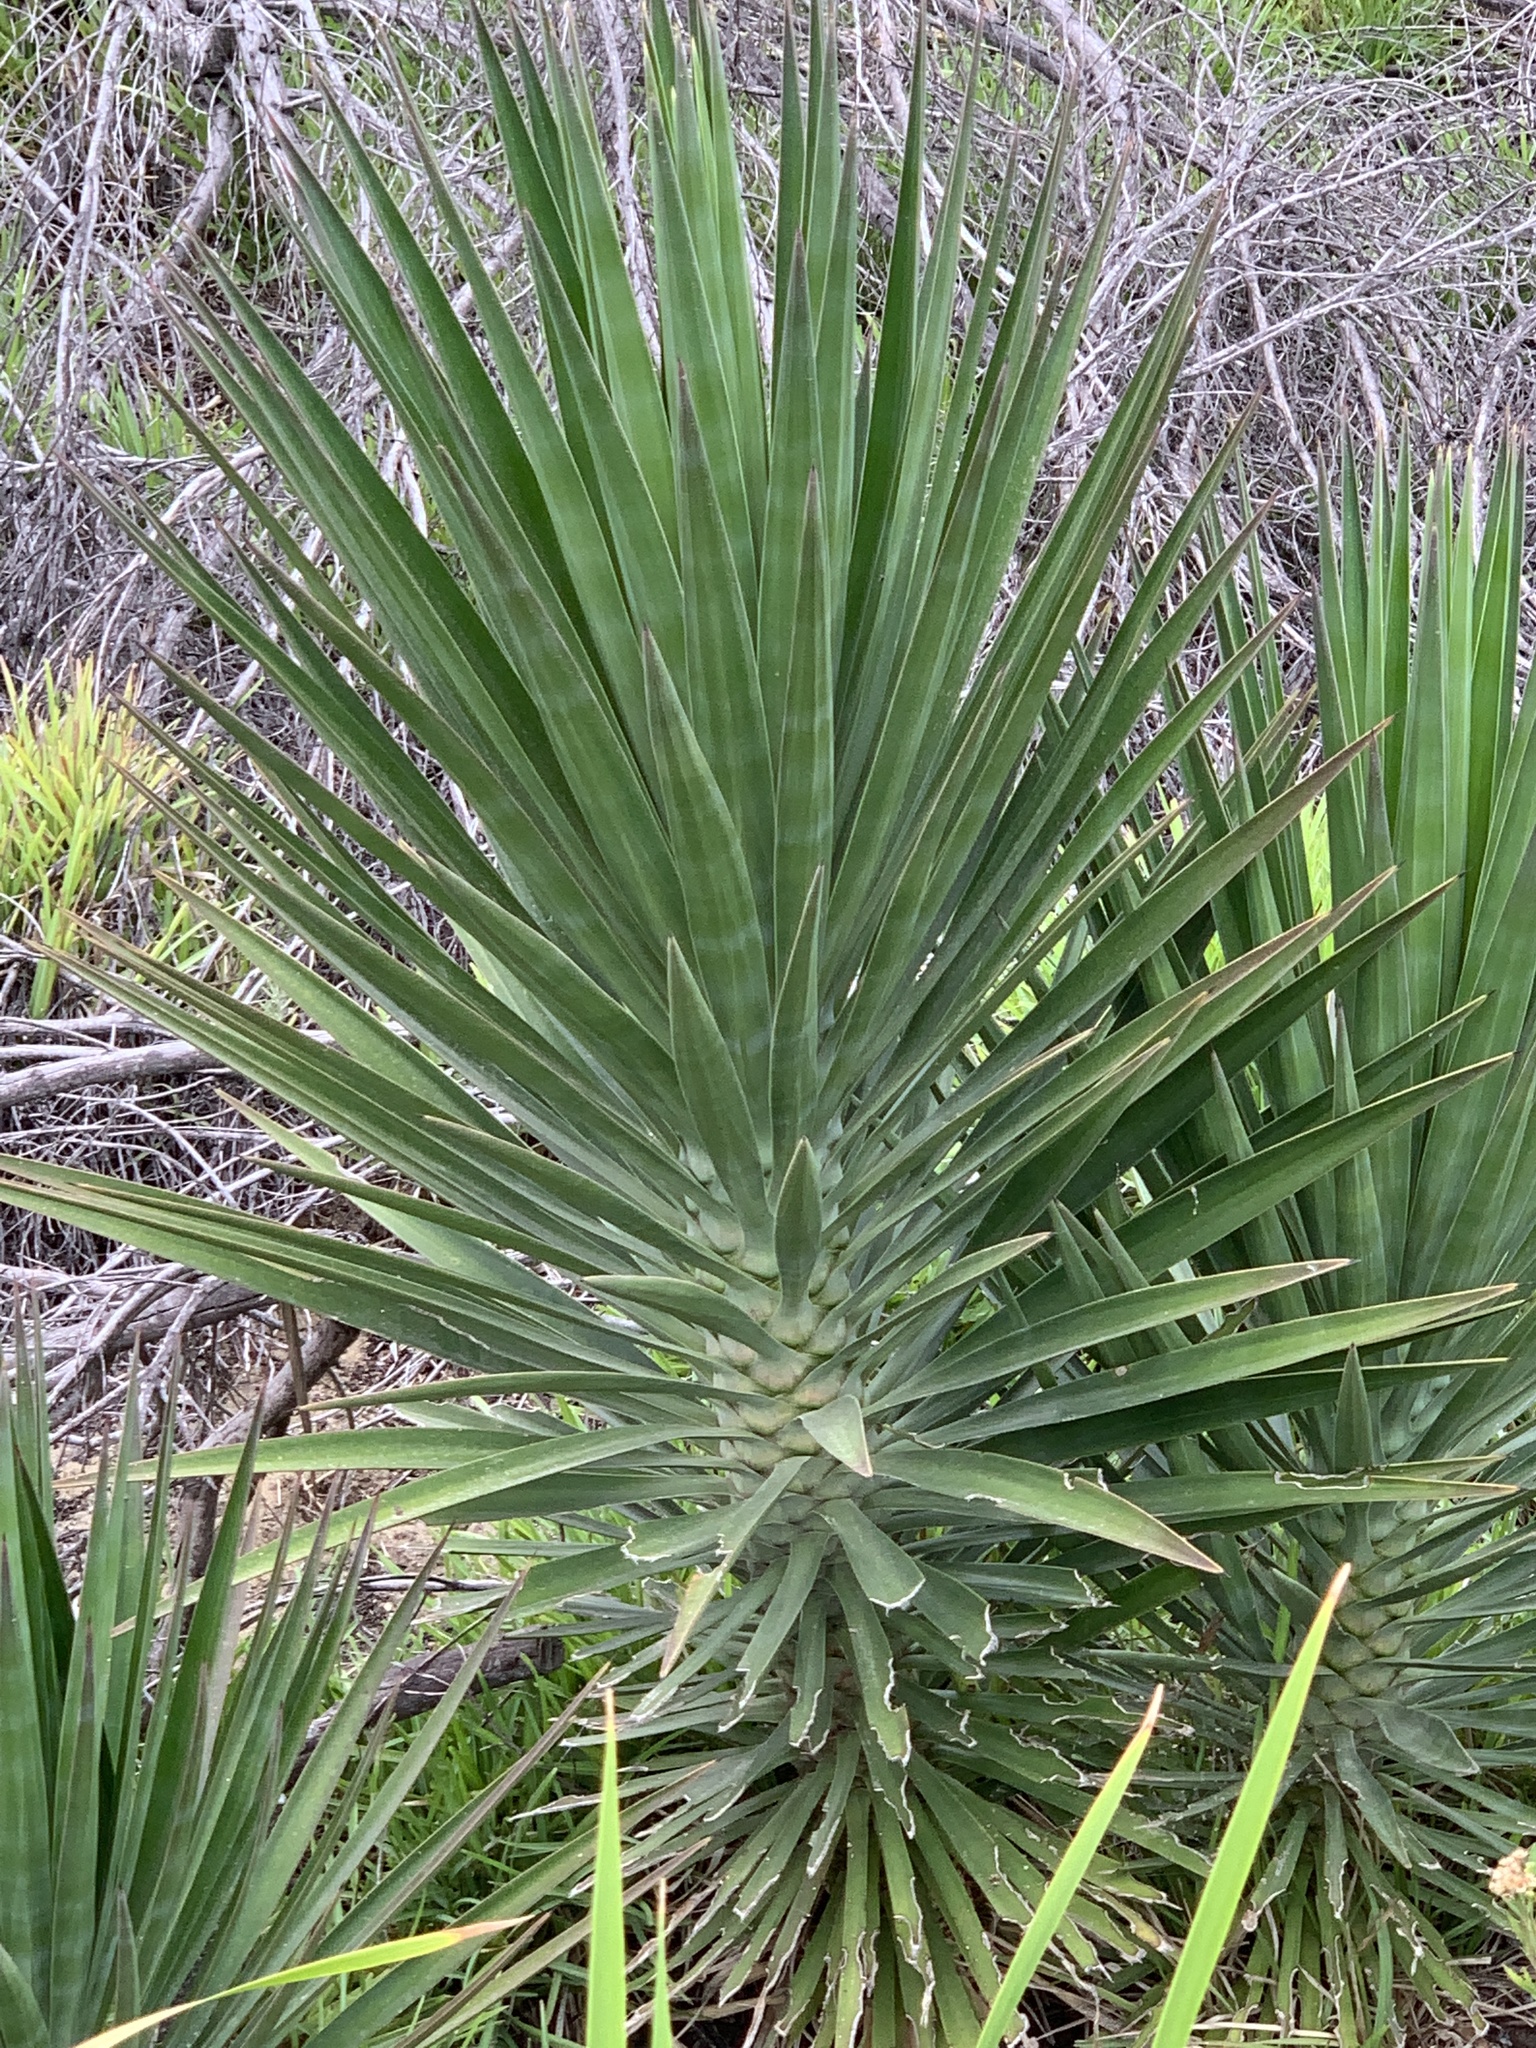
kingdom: Plantae
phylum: Tracheophyta
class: Liliopsida
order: Asparagales
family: Asparagaceae
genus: Yucca
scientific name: Yucca aloifolia
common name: Aloe yucca
